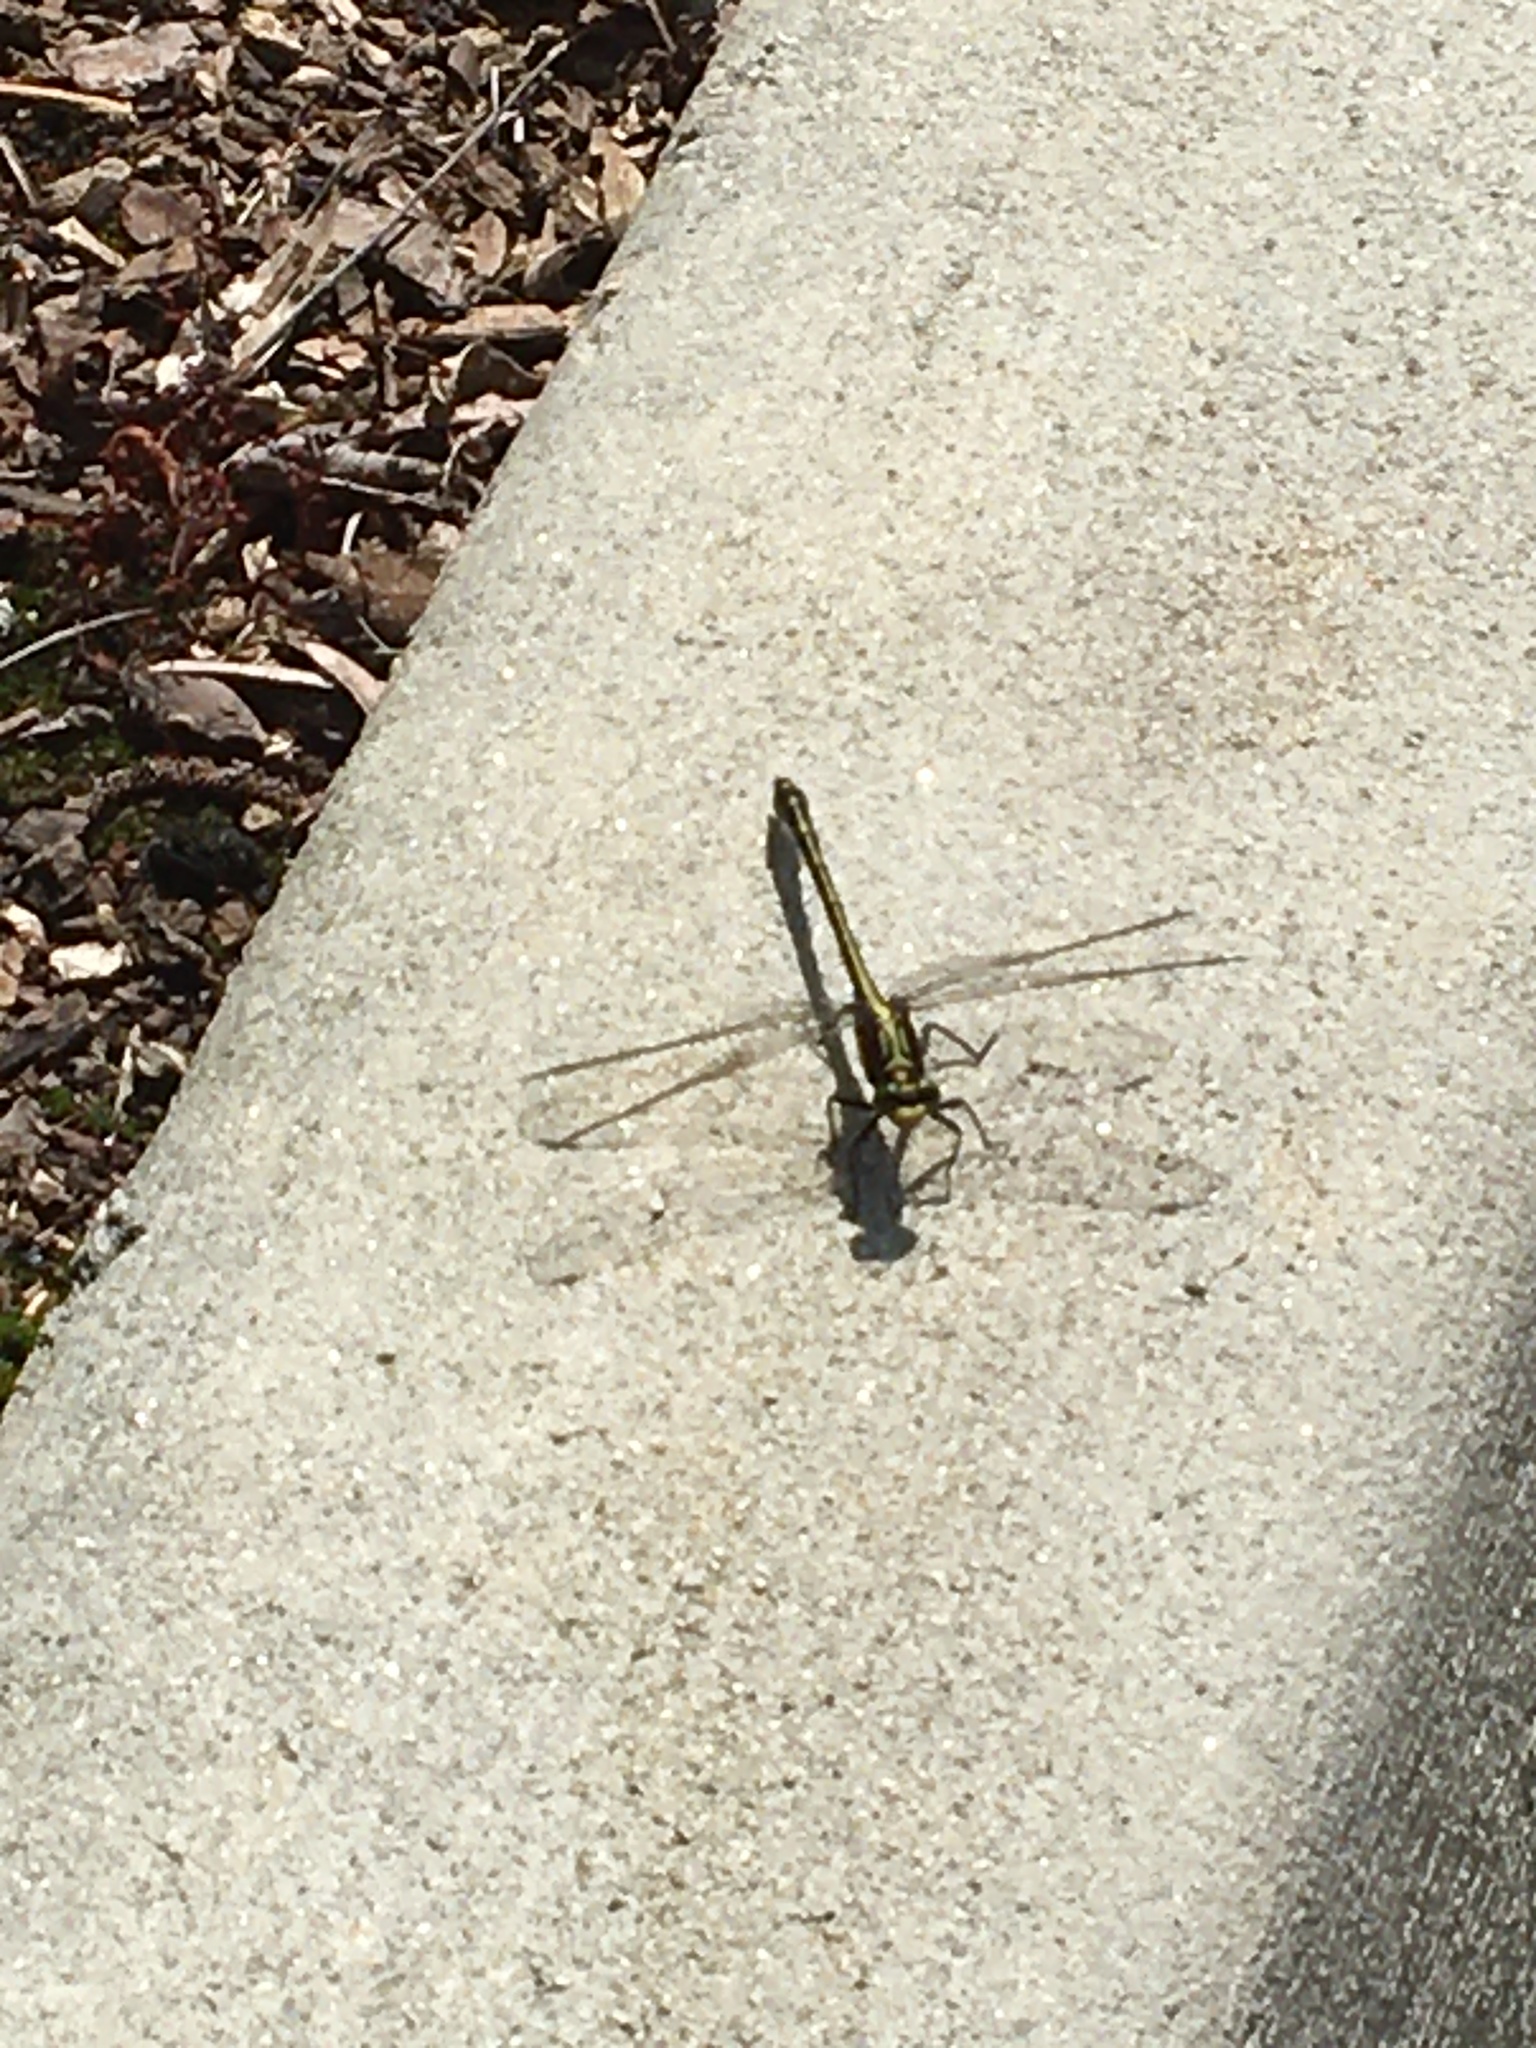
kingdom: Animalia
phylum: Arthropoda
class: Insecta
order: Odonata
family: Gomphidae
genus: Dromogomphus
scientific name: Dromogomphus spinosus
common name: Black-shouldered spinyleg
